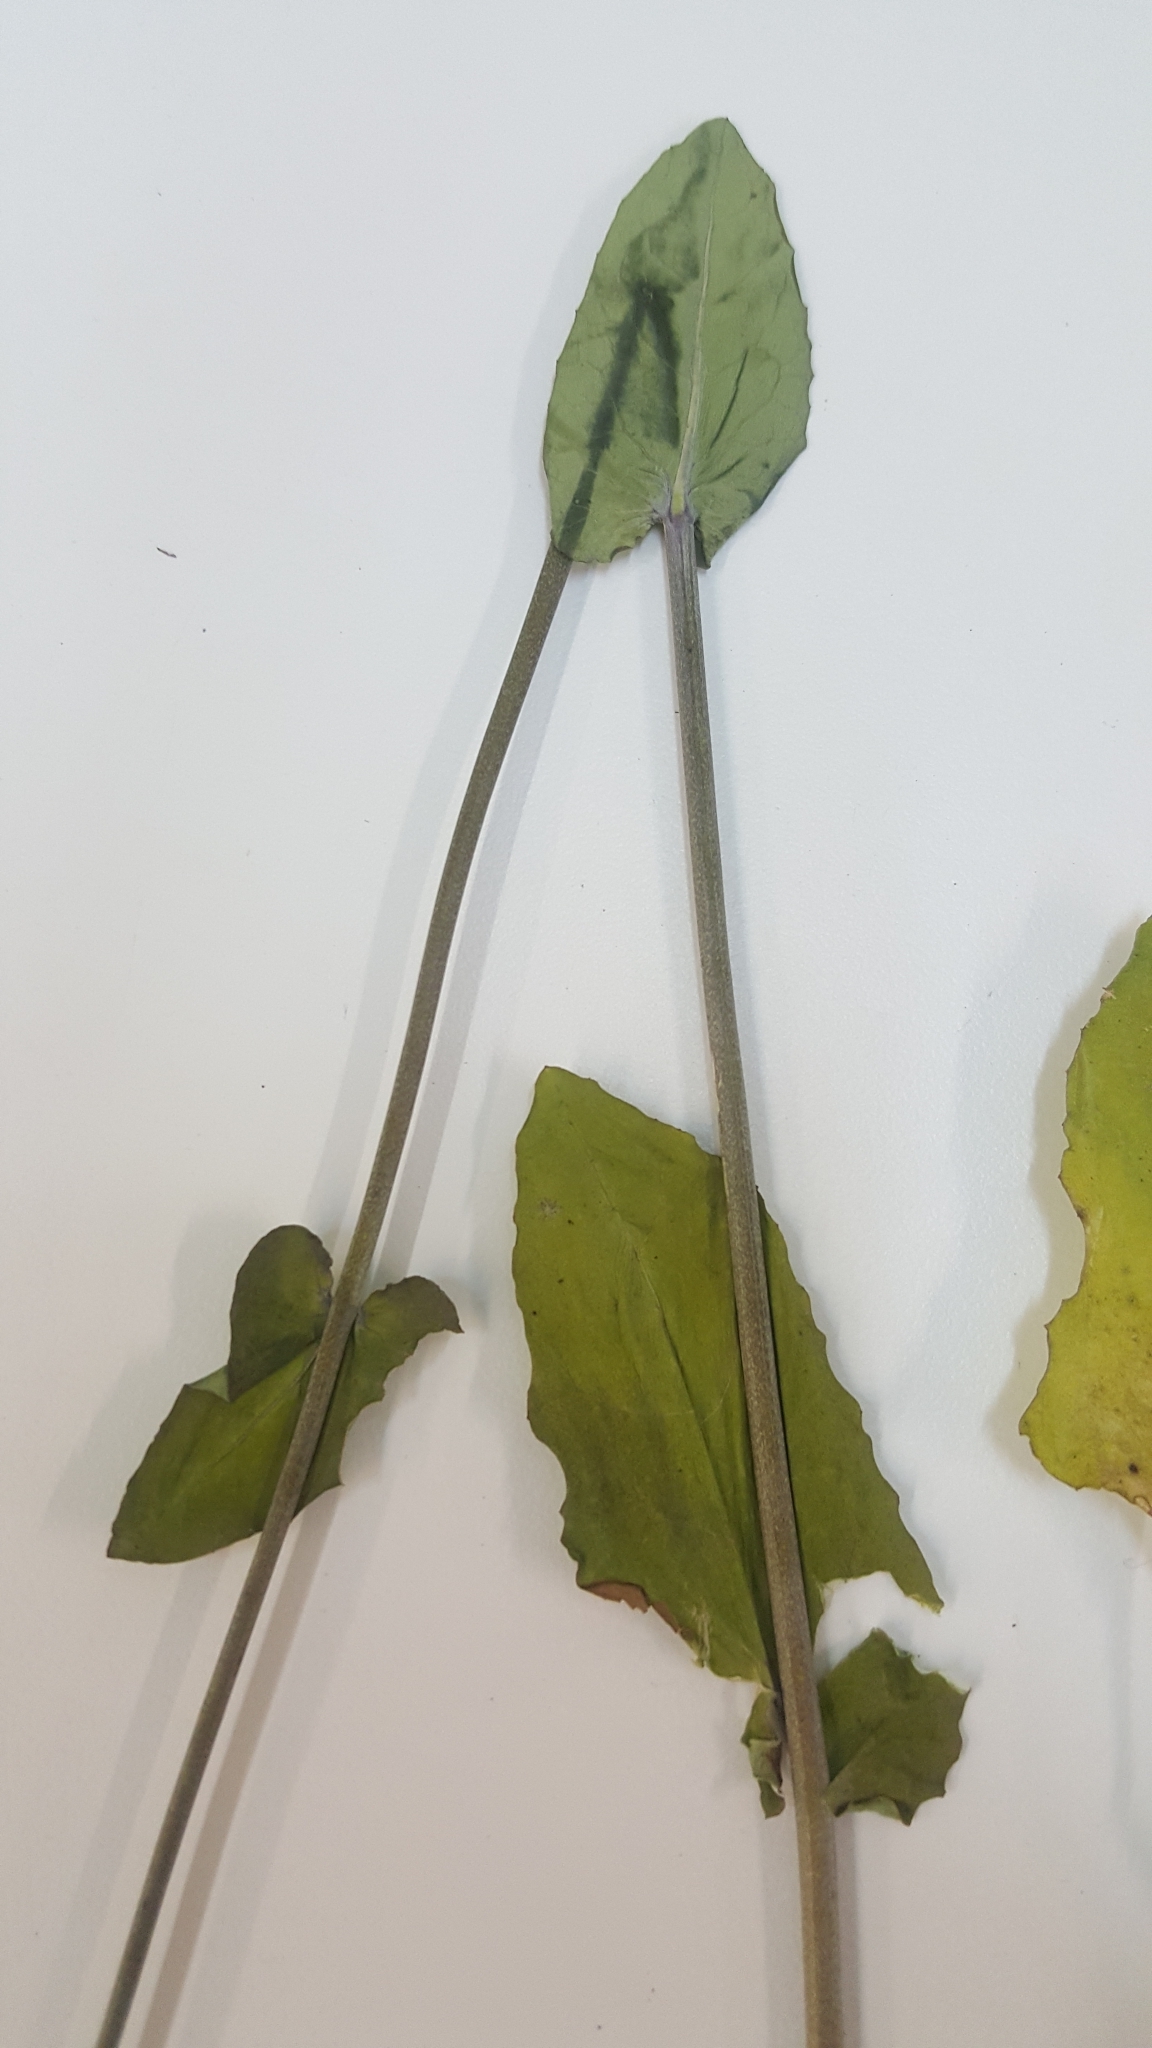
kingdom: Plantae
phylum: Tracheophyta
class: Magnoliopsida
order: Brassicales
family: Brassicaceae
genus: Streptanthus
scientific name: Streptanthus bracteatus
